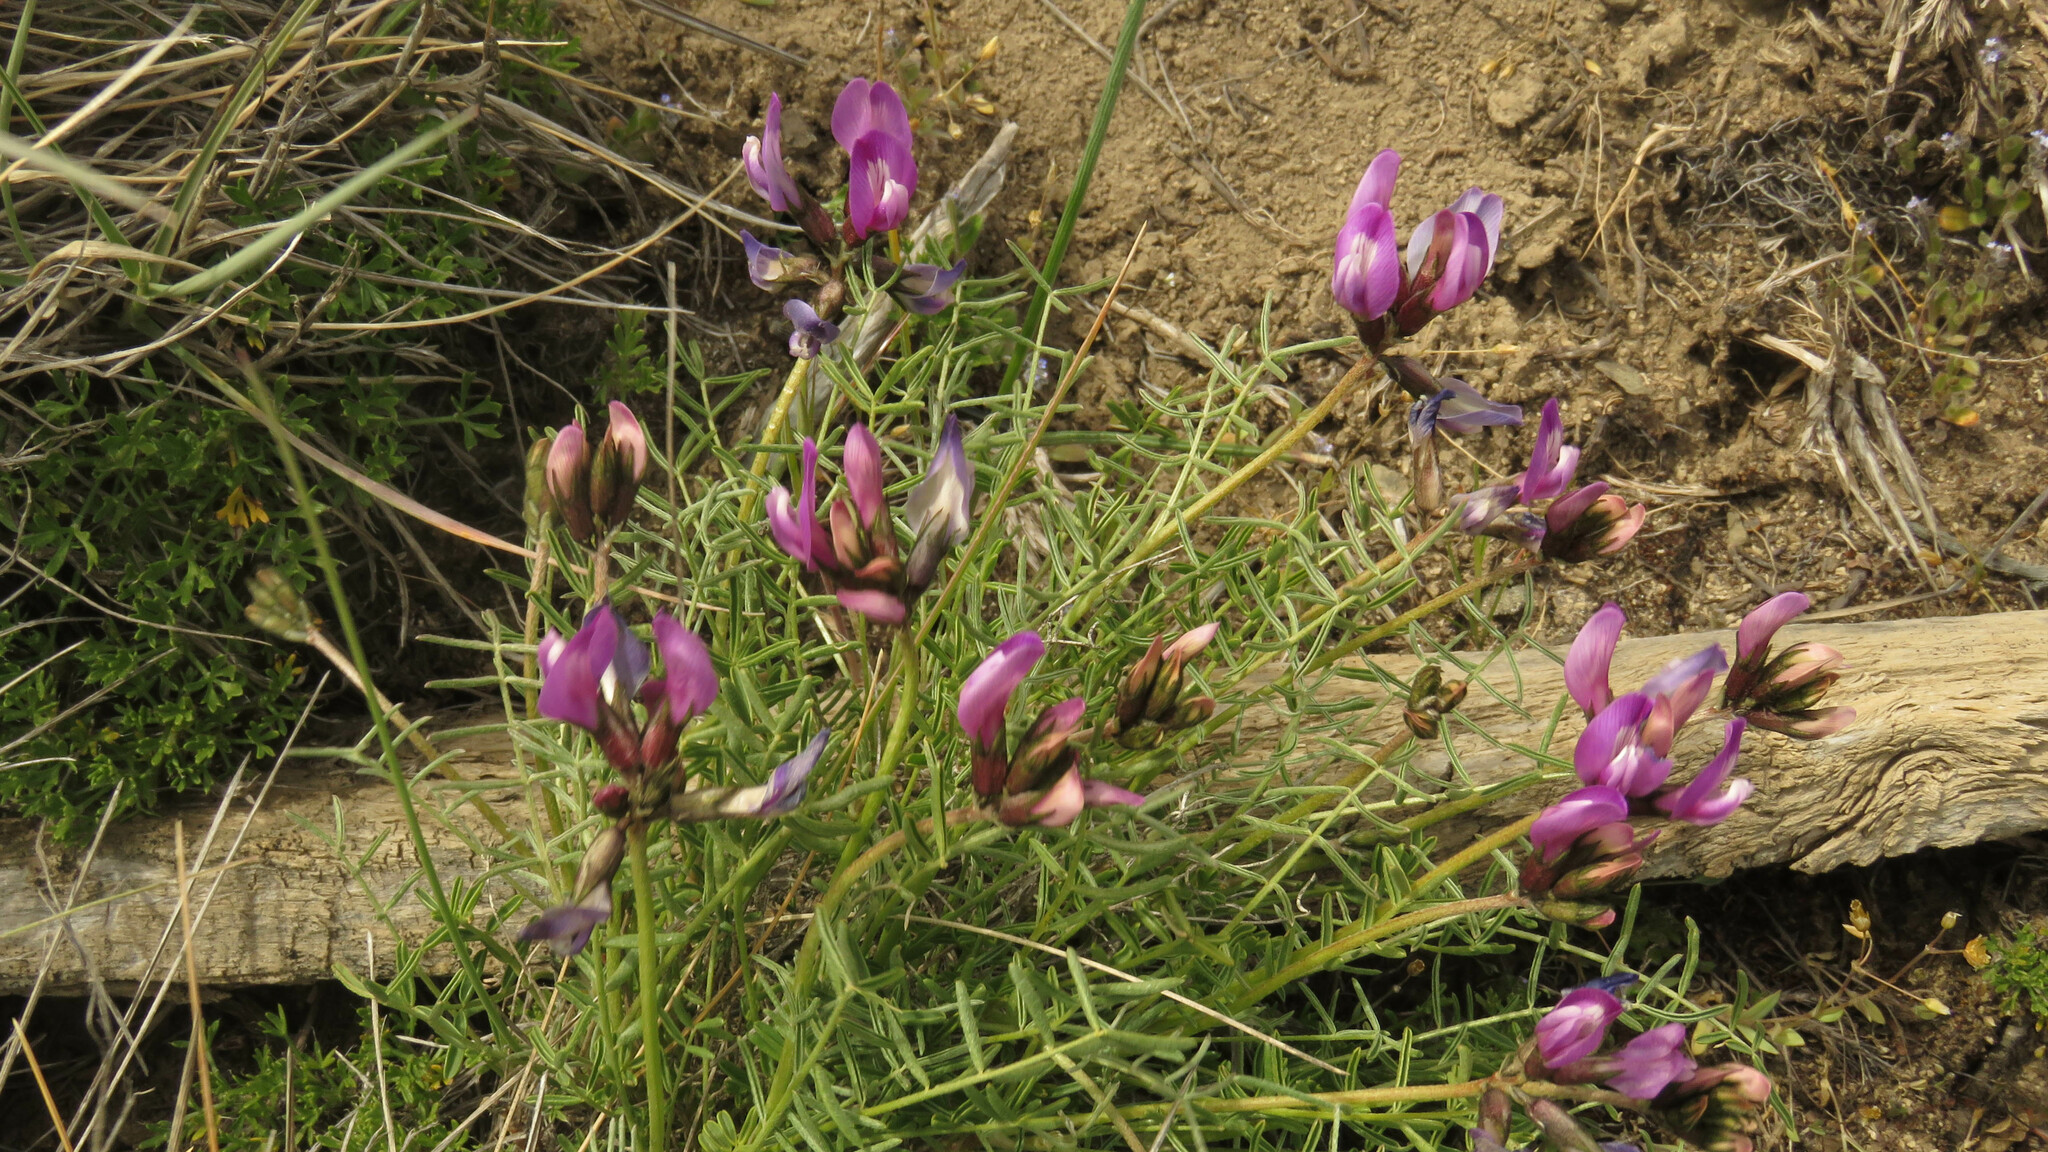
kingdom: Plantae
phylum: Tracheophyta
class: Magnoliopsida
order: Fabales
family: Fabaceae
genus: Astragalus
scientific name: Astragalus patagonicus
